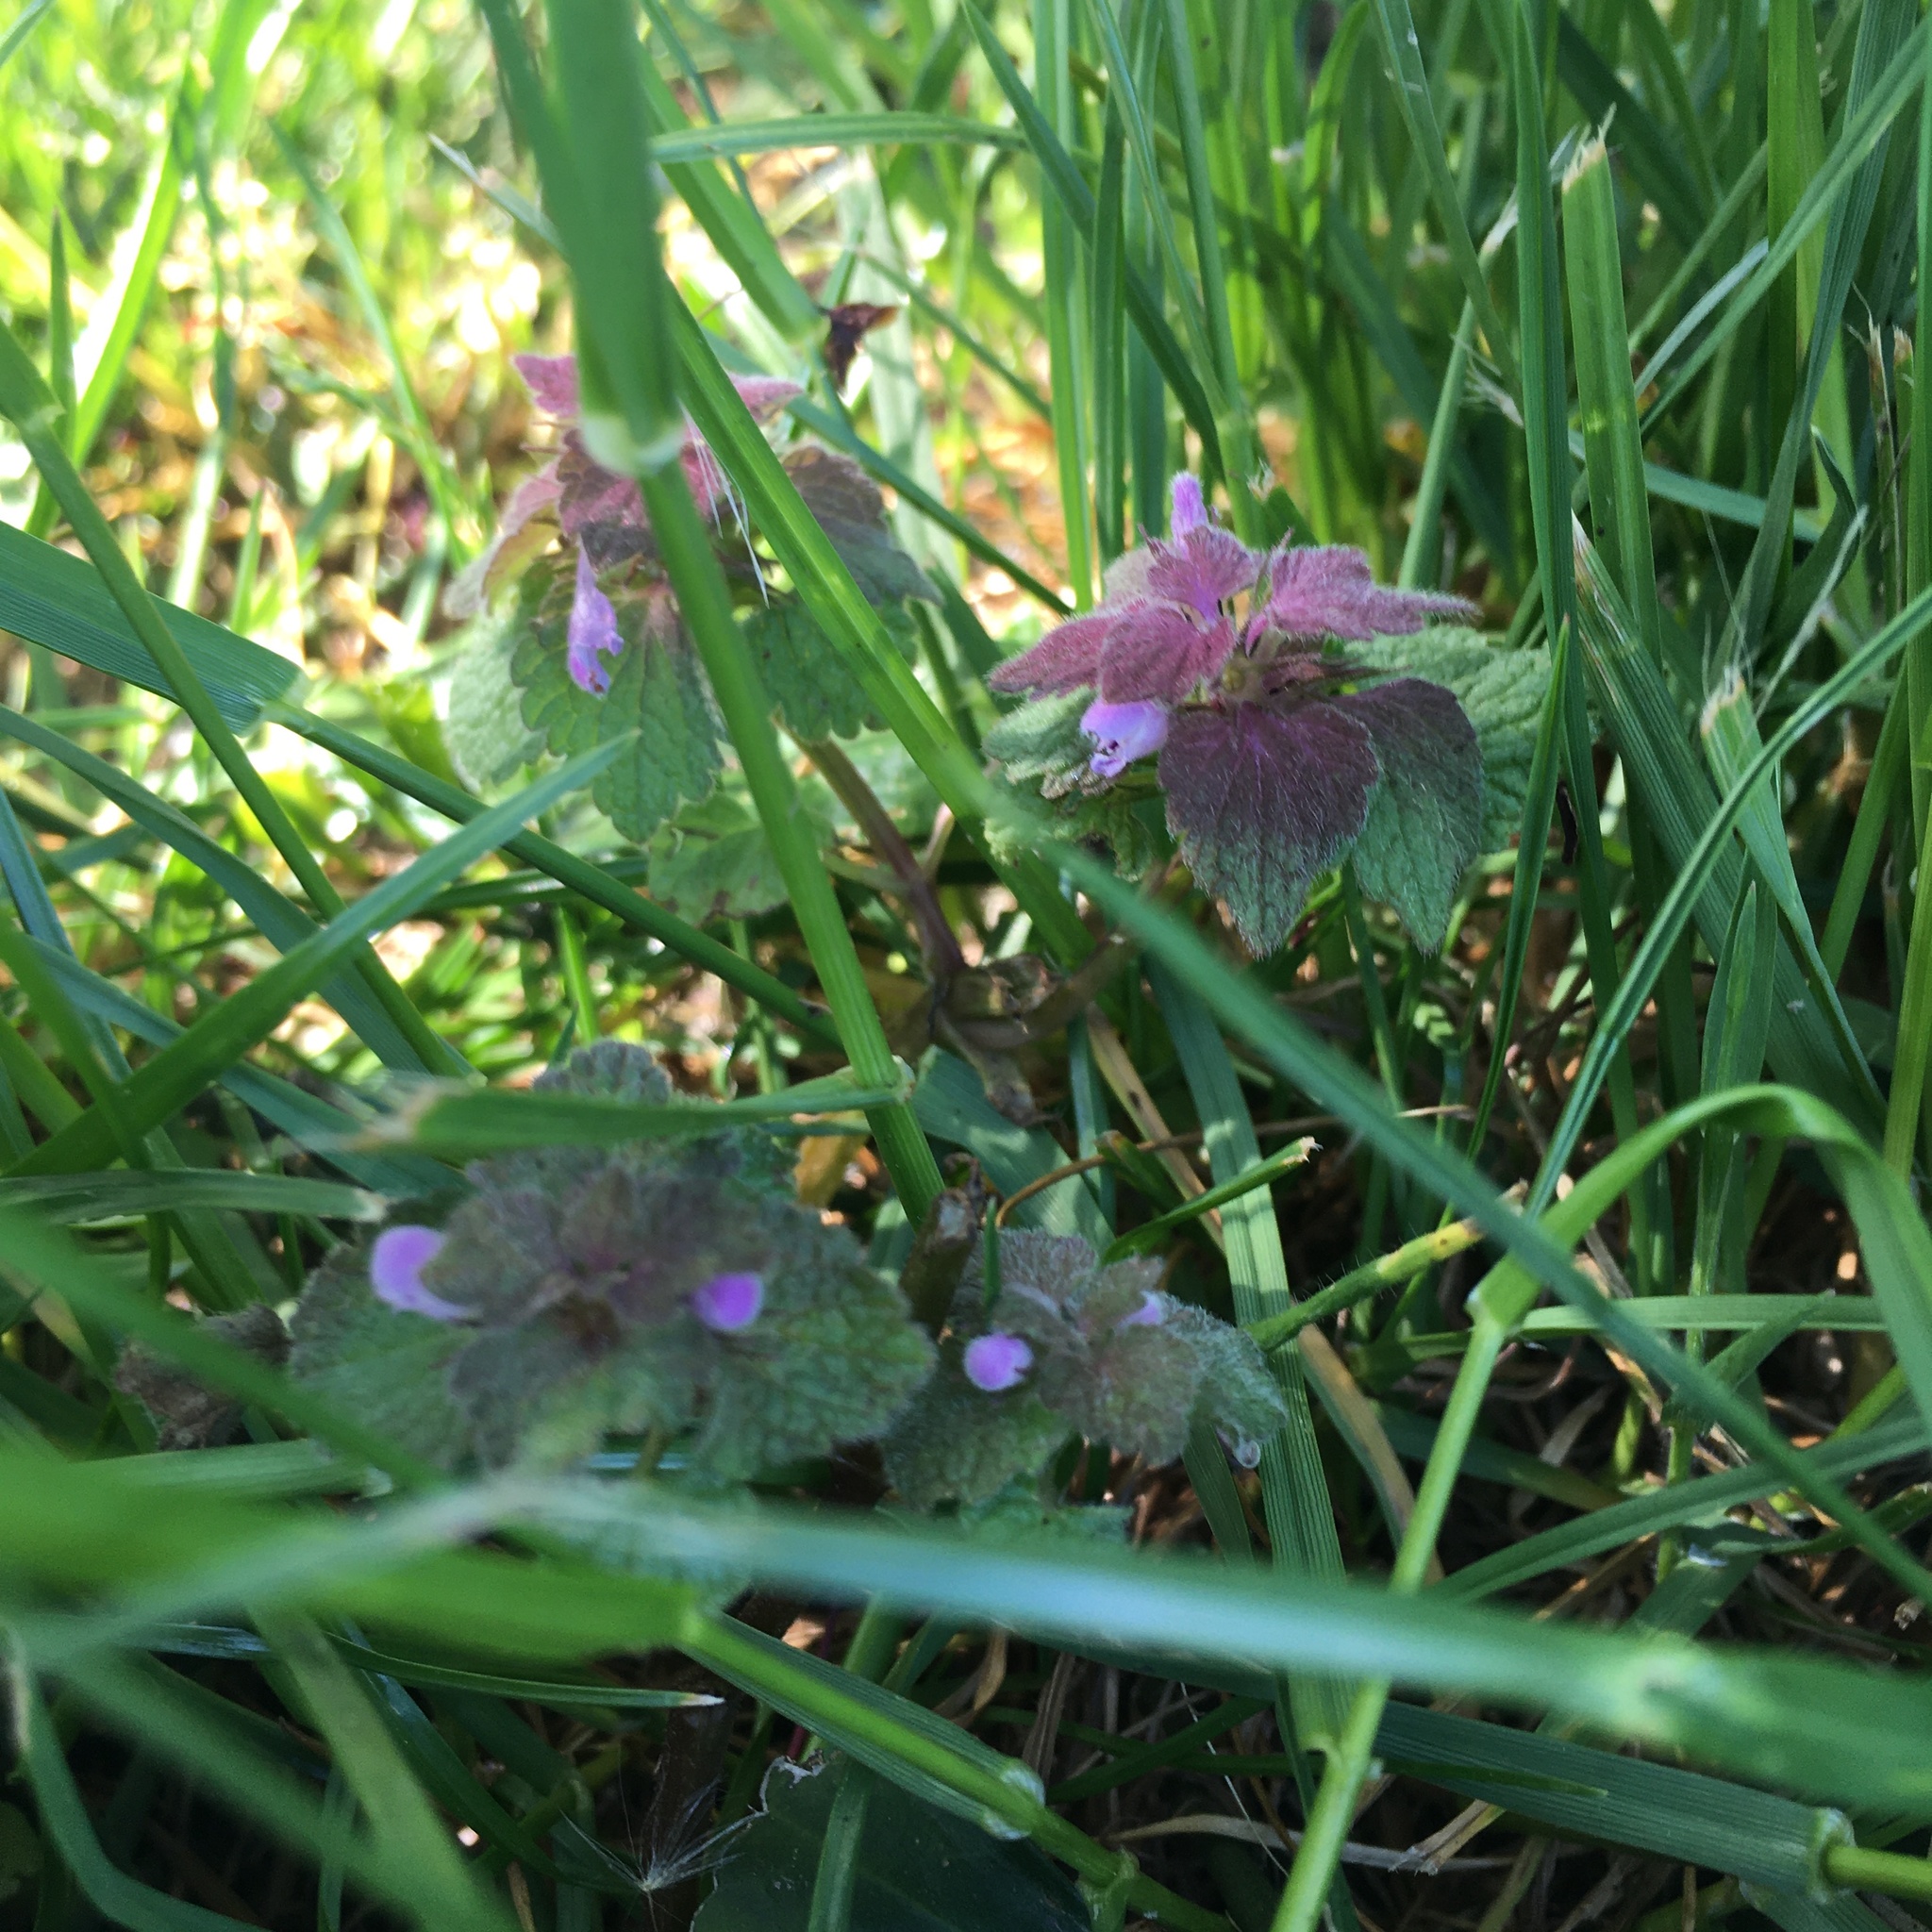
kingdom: Plantae
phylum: Tracheophyta
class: Magnoliopsida
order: Lamiales
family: Lamiaceae
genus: Lamium
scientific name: Lamium purpureum
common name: Red dead-nettle
